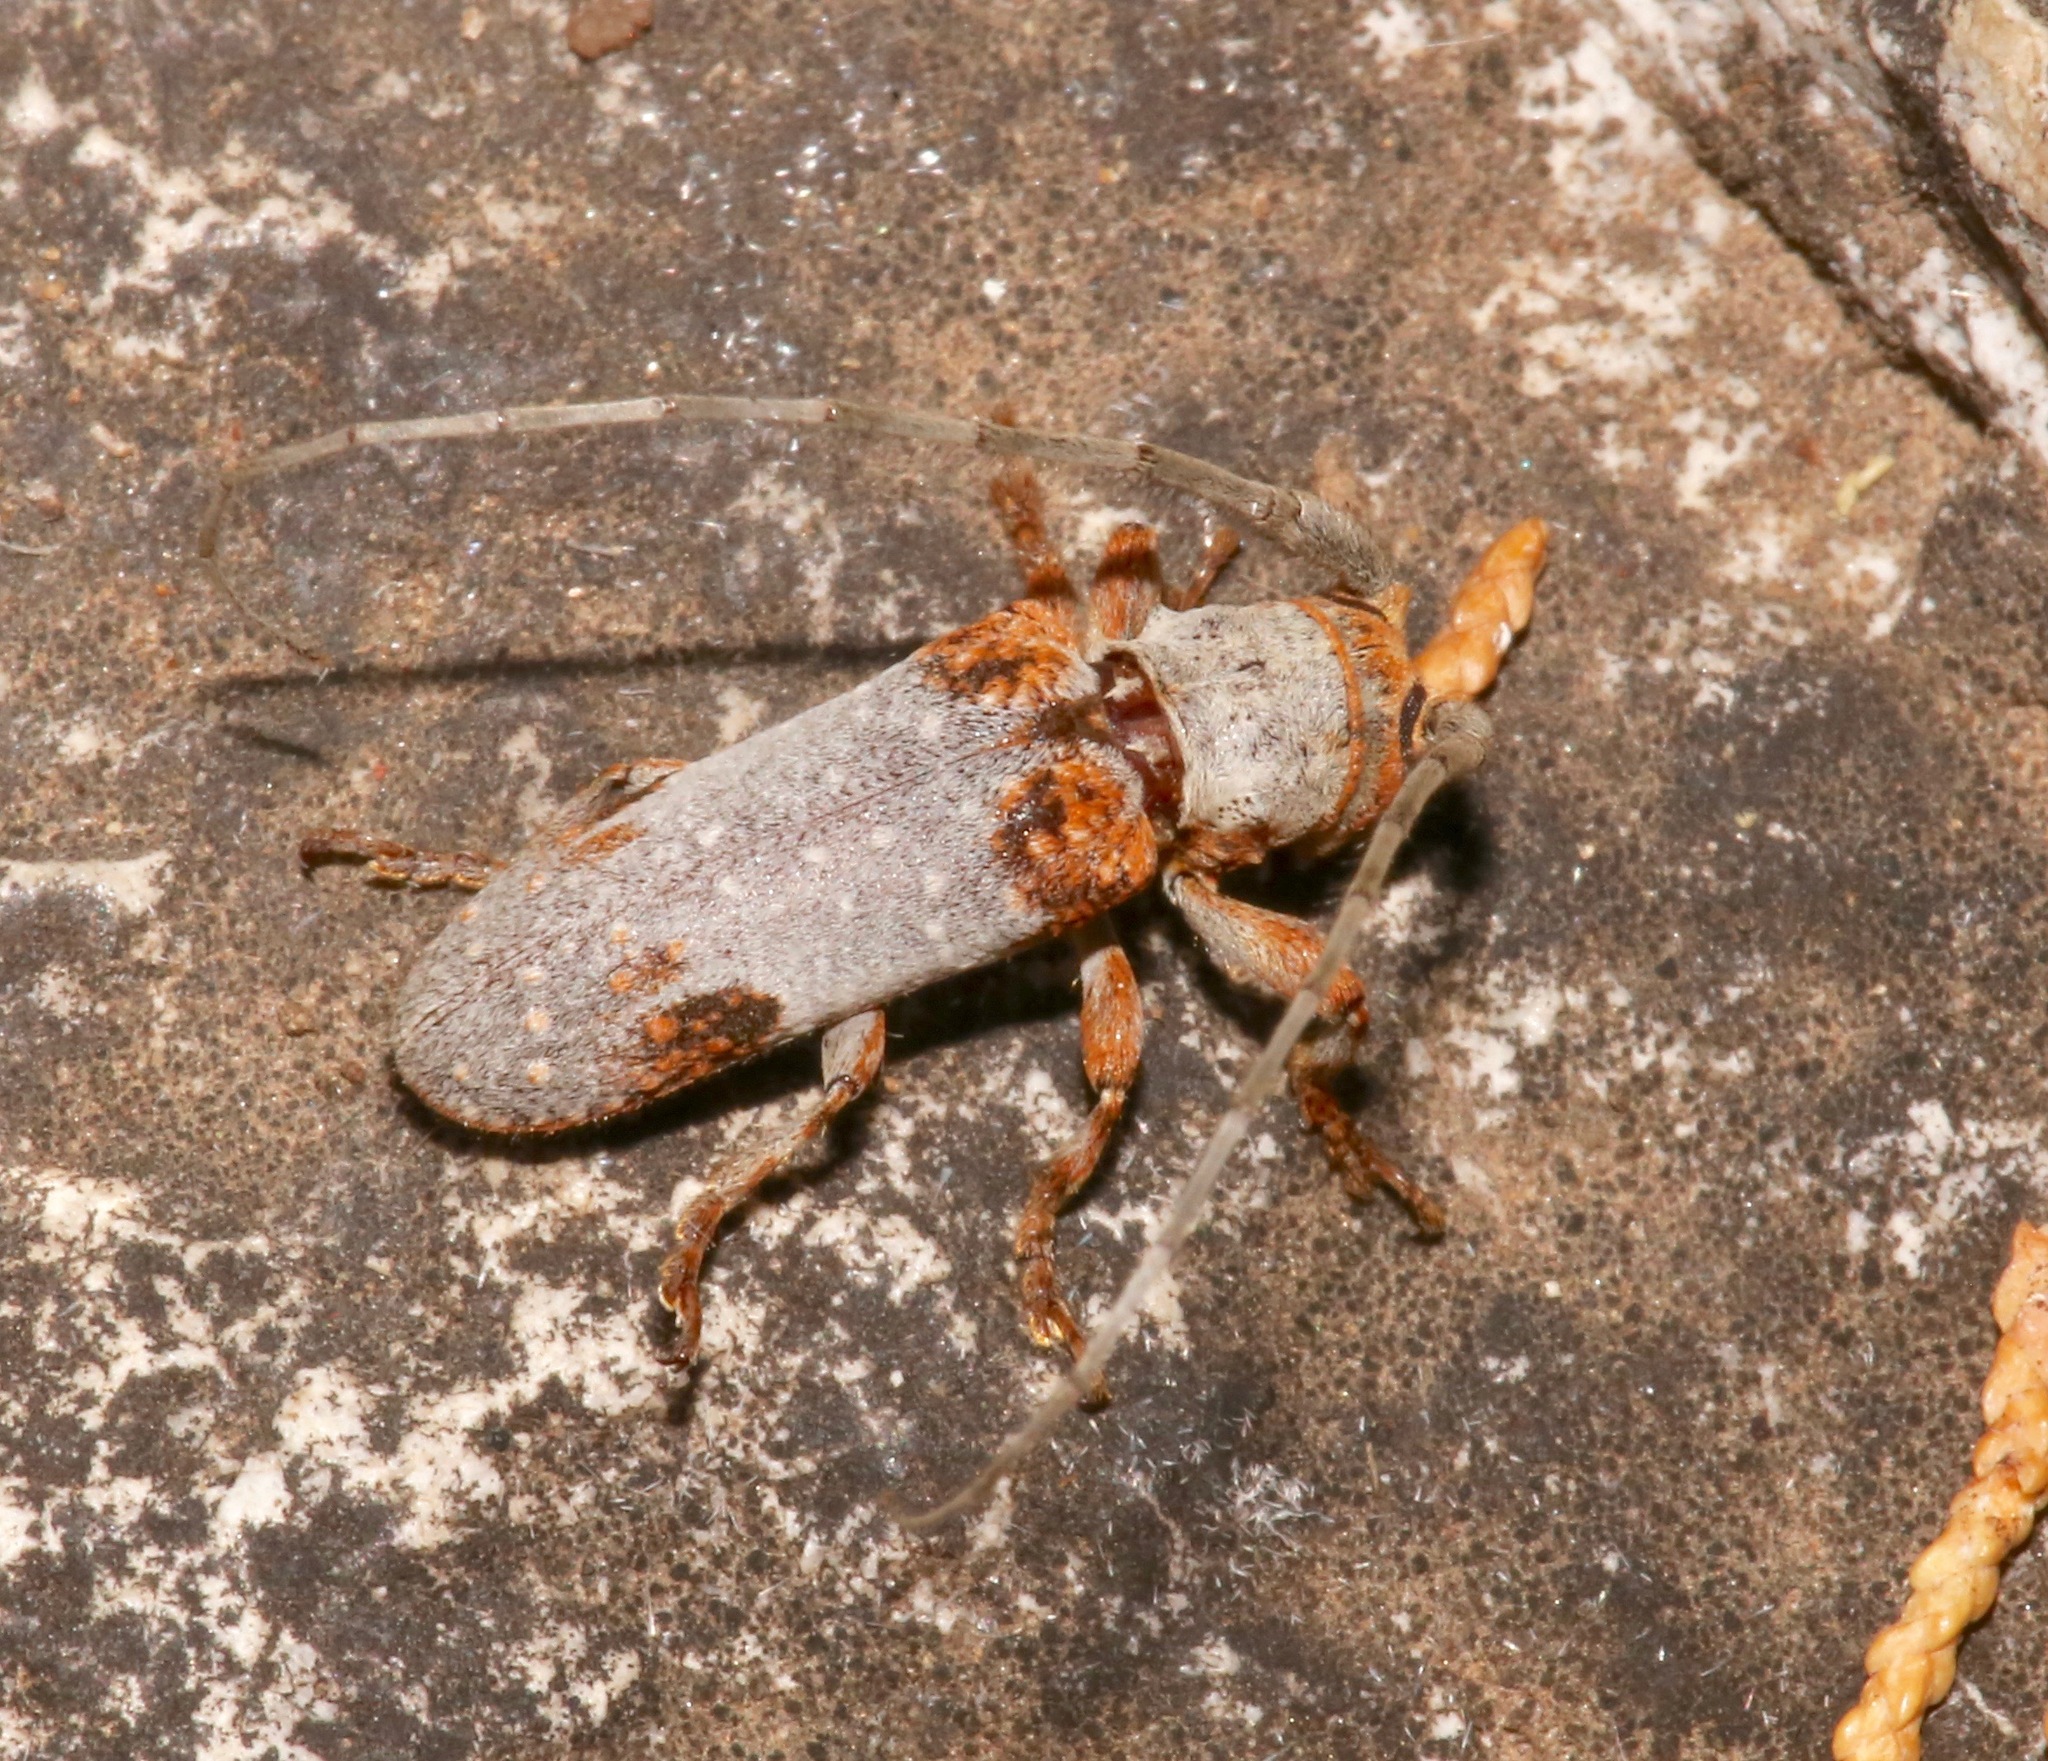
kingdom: Animalia
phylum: Arthropoda
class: Insecta
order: Coleoptera
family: Cerambycidae
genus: Oncideres
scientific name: Oncideres quercus
